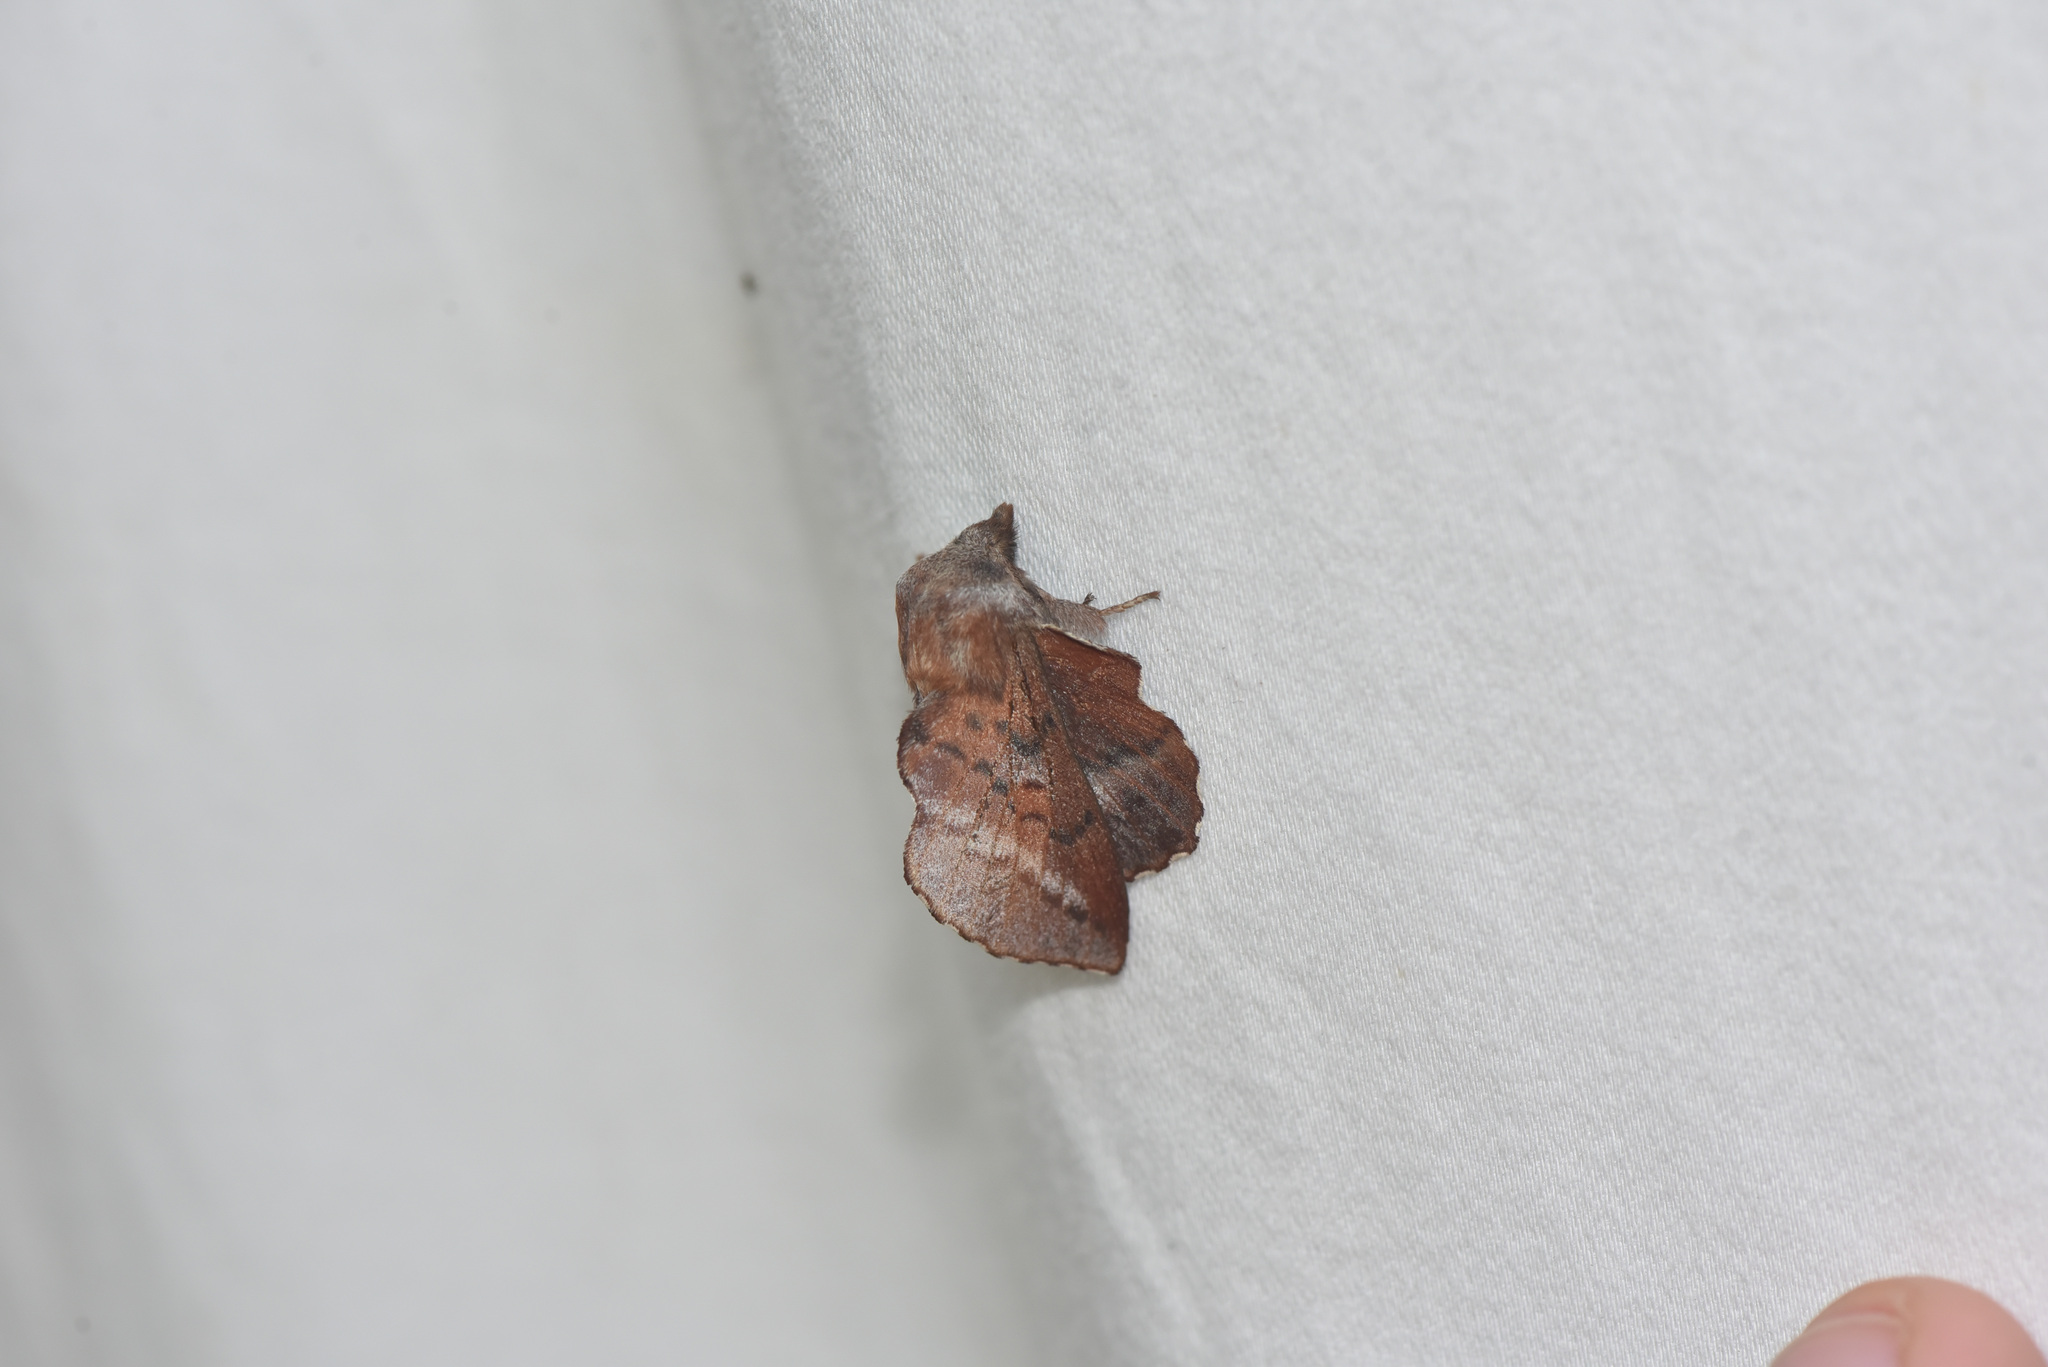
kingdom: Animalia
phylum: Arthropoda
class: Insecta
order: Lepidoptera
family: Lasiocampidae
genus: Phyllodesma
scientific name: Phyllodesma americana
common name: American lappet moth
